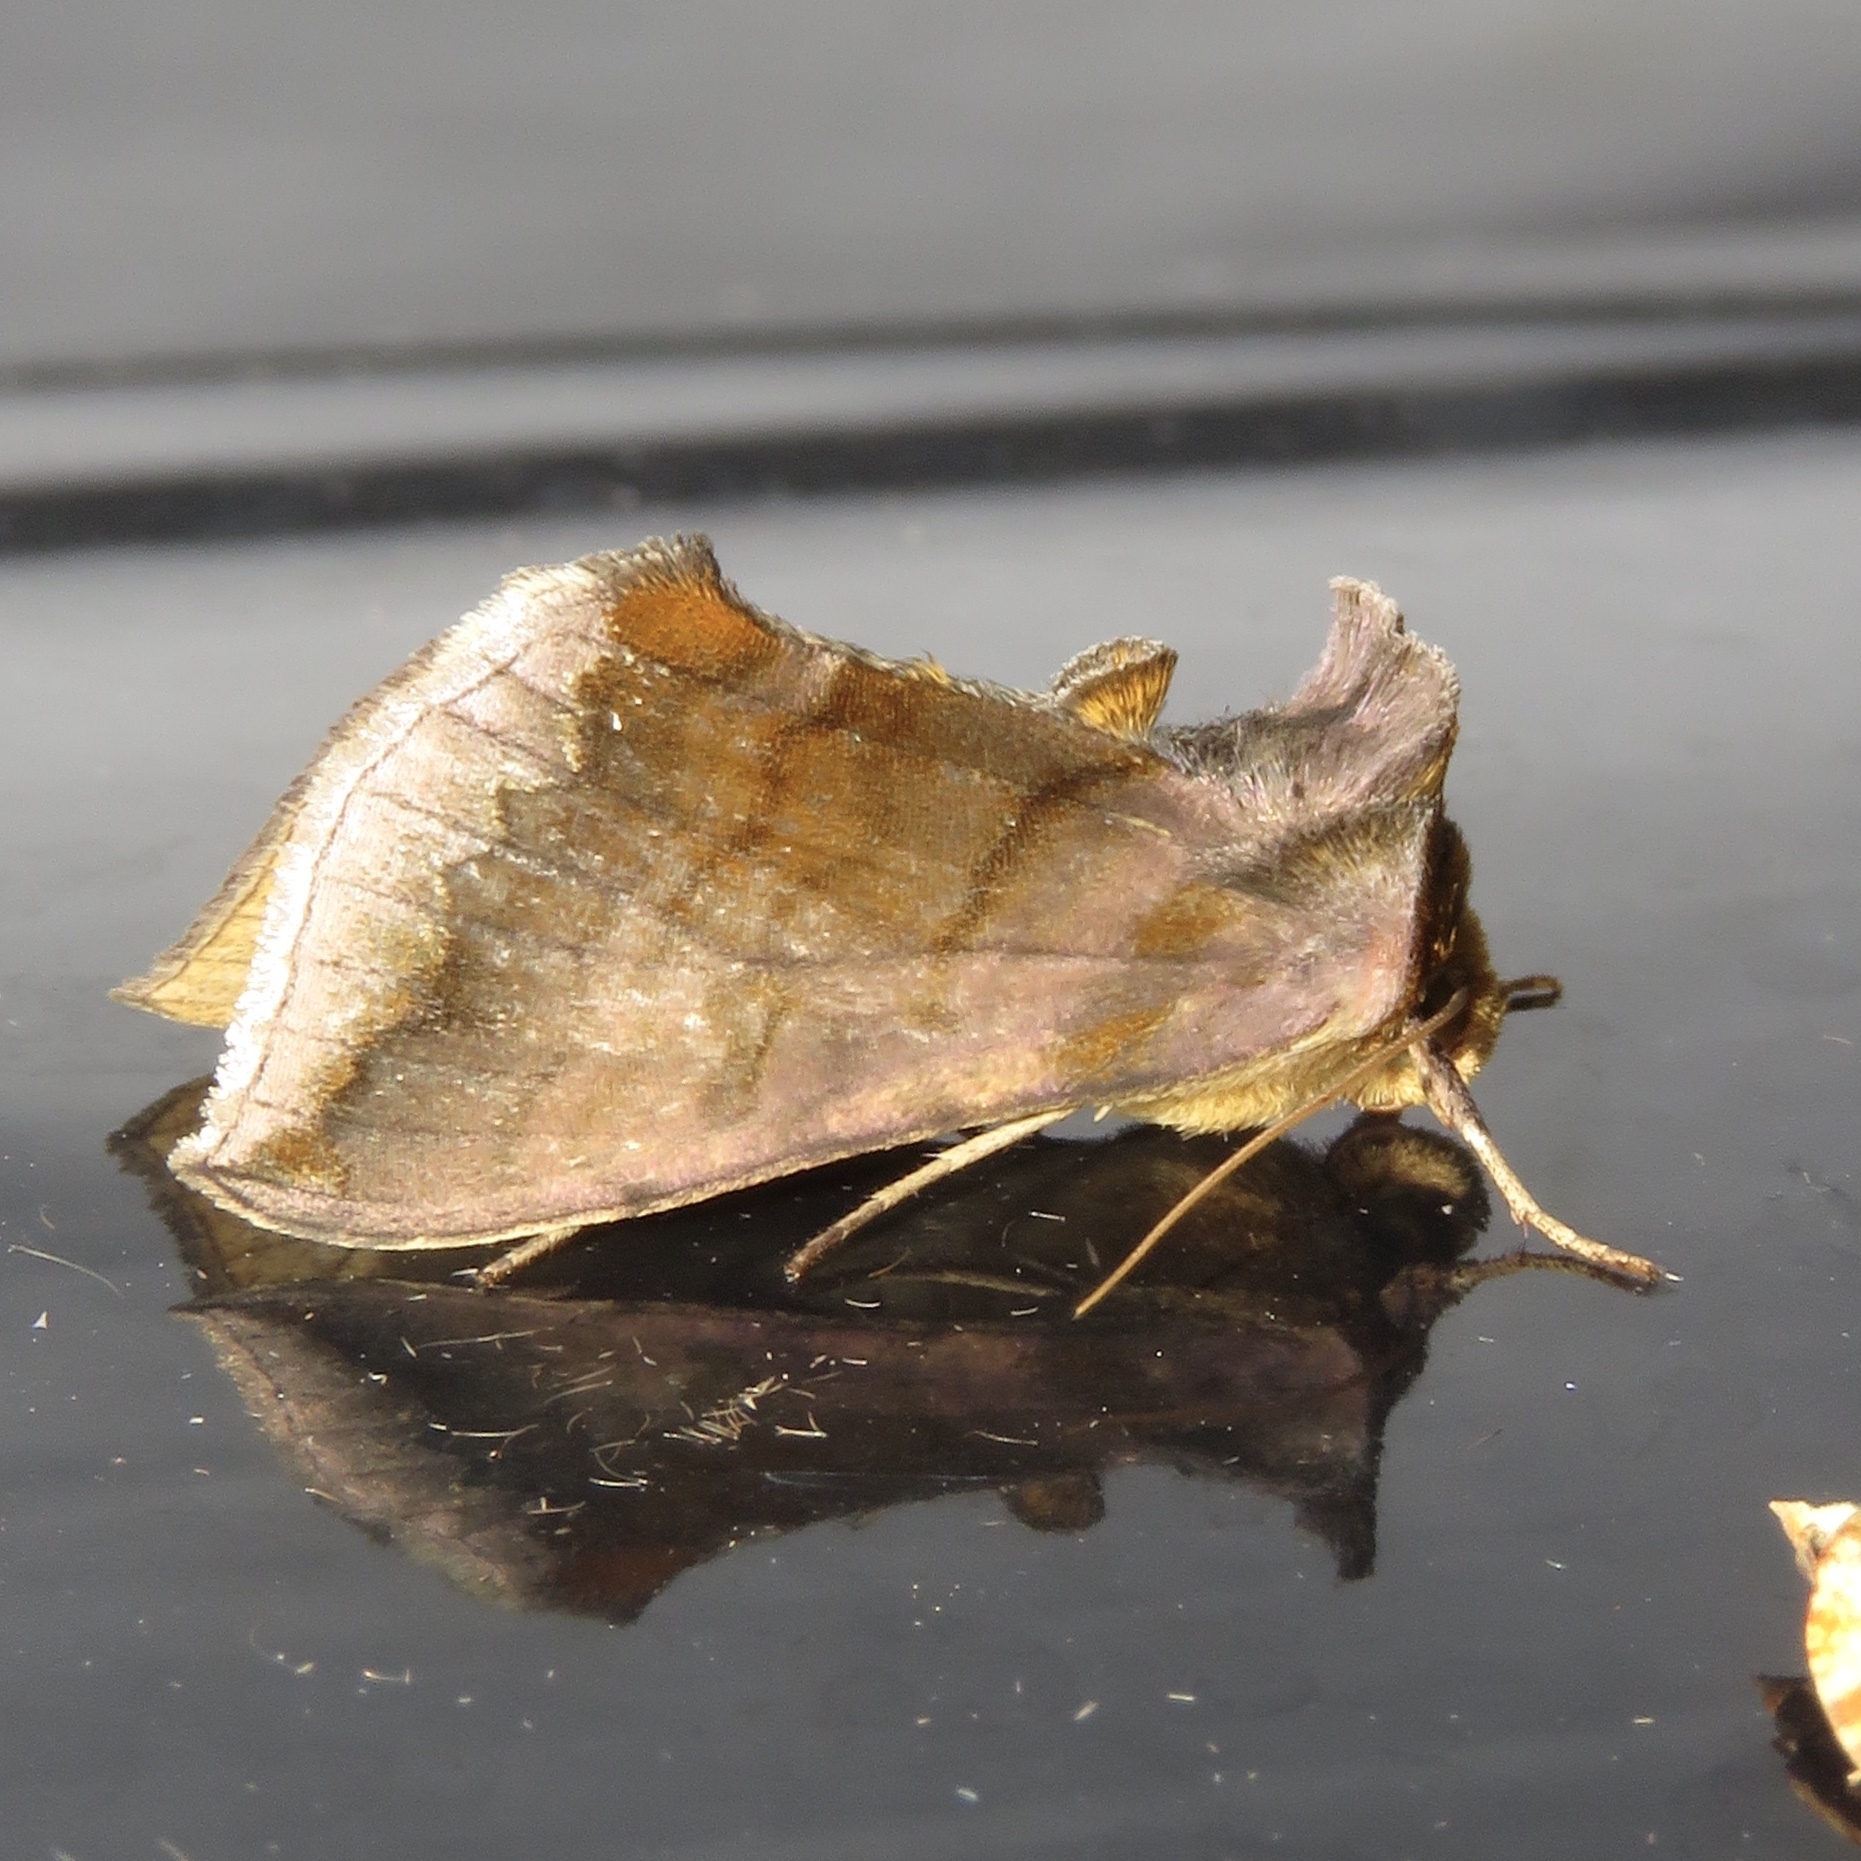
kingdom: Animalia
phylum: Arthropoda
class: Insecta
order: Lepidoptera
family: Noctuidae
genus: Allagrapha
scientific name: Allagrapha aerea
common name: Unspotted looper moth
